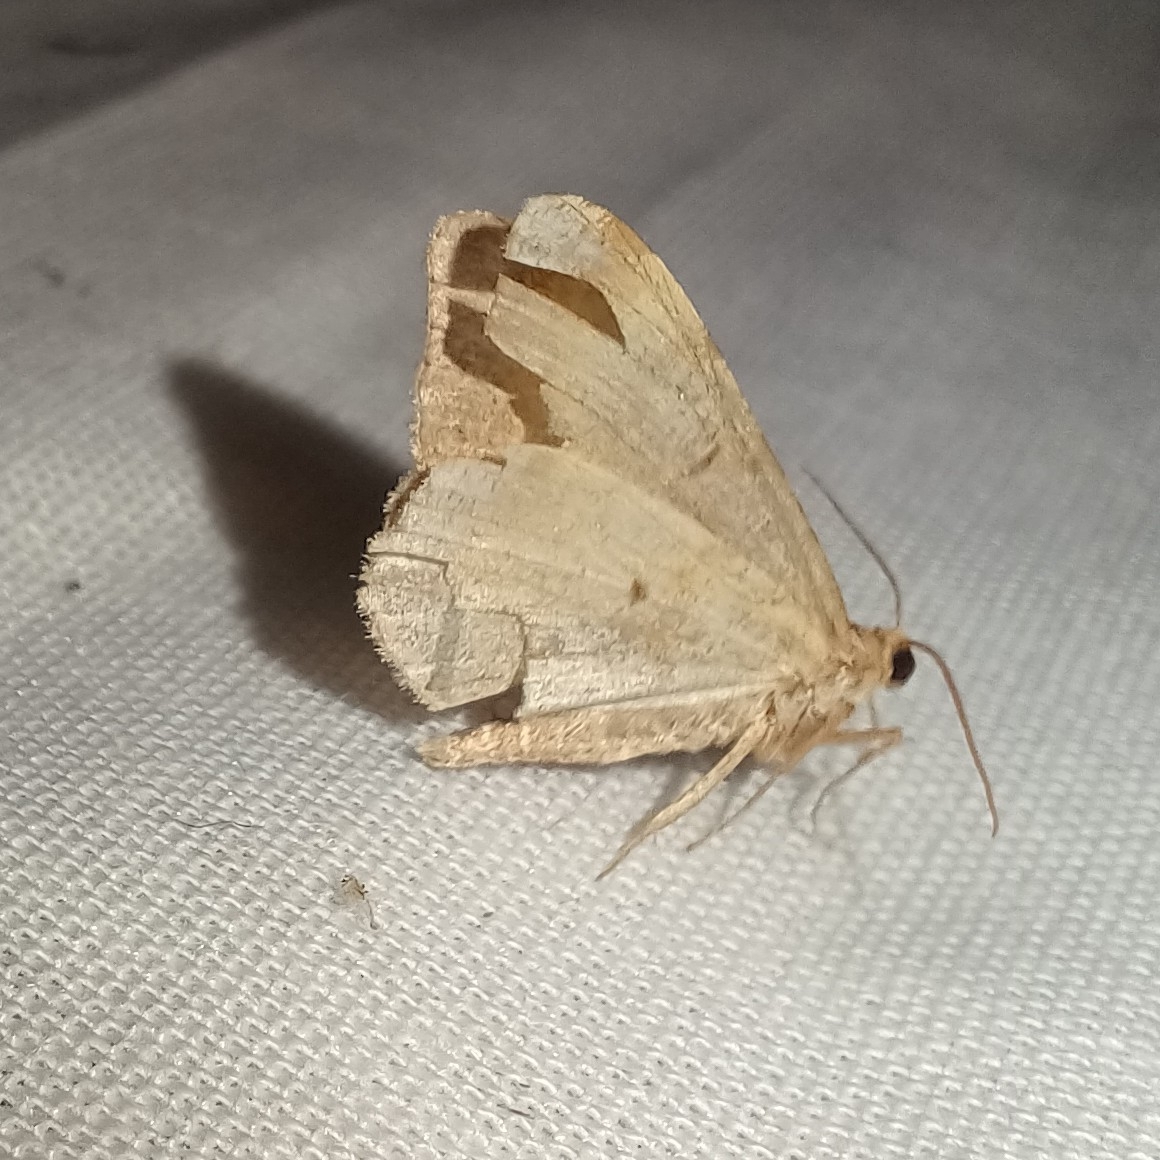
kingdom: Animalia
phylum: Arthropoda
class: Insecta
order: Lepidoptera
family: Geometridae
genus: Macaria
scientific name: Macaria liturata
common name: Tawny-barred angle
